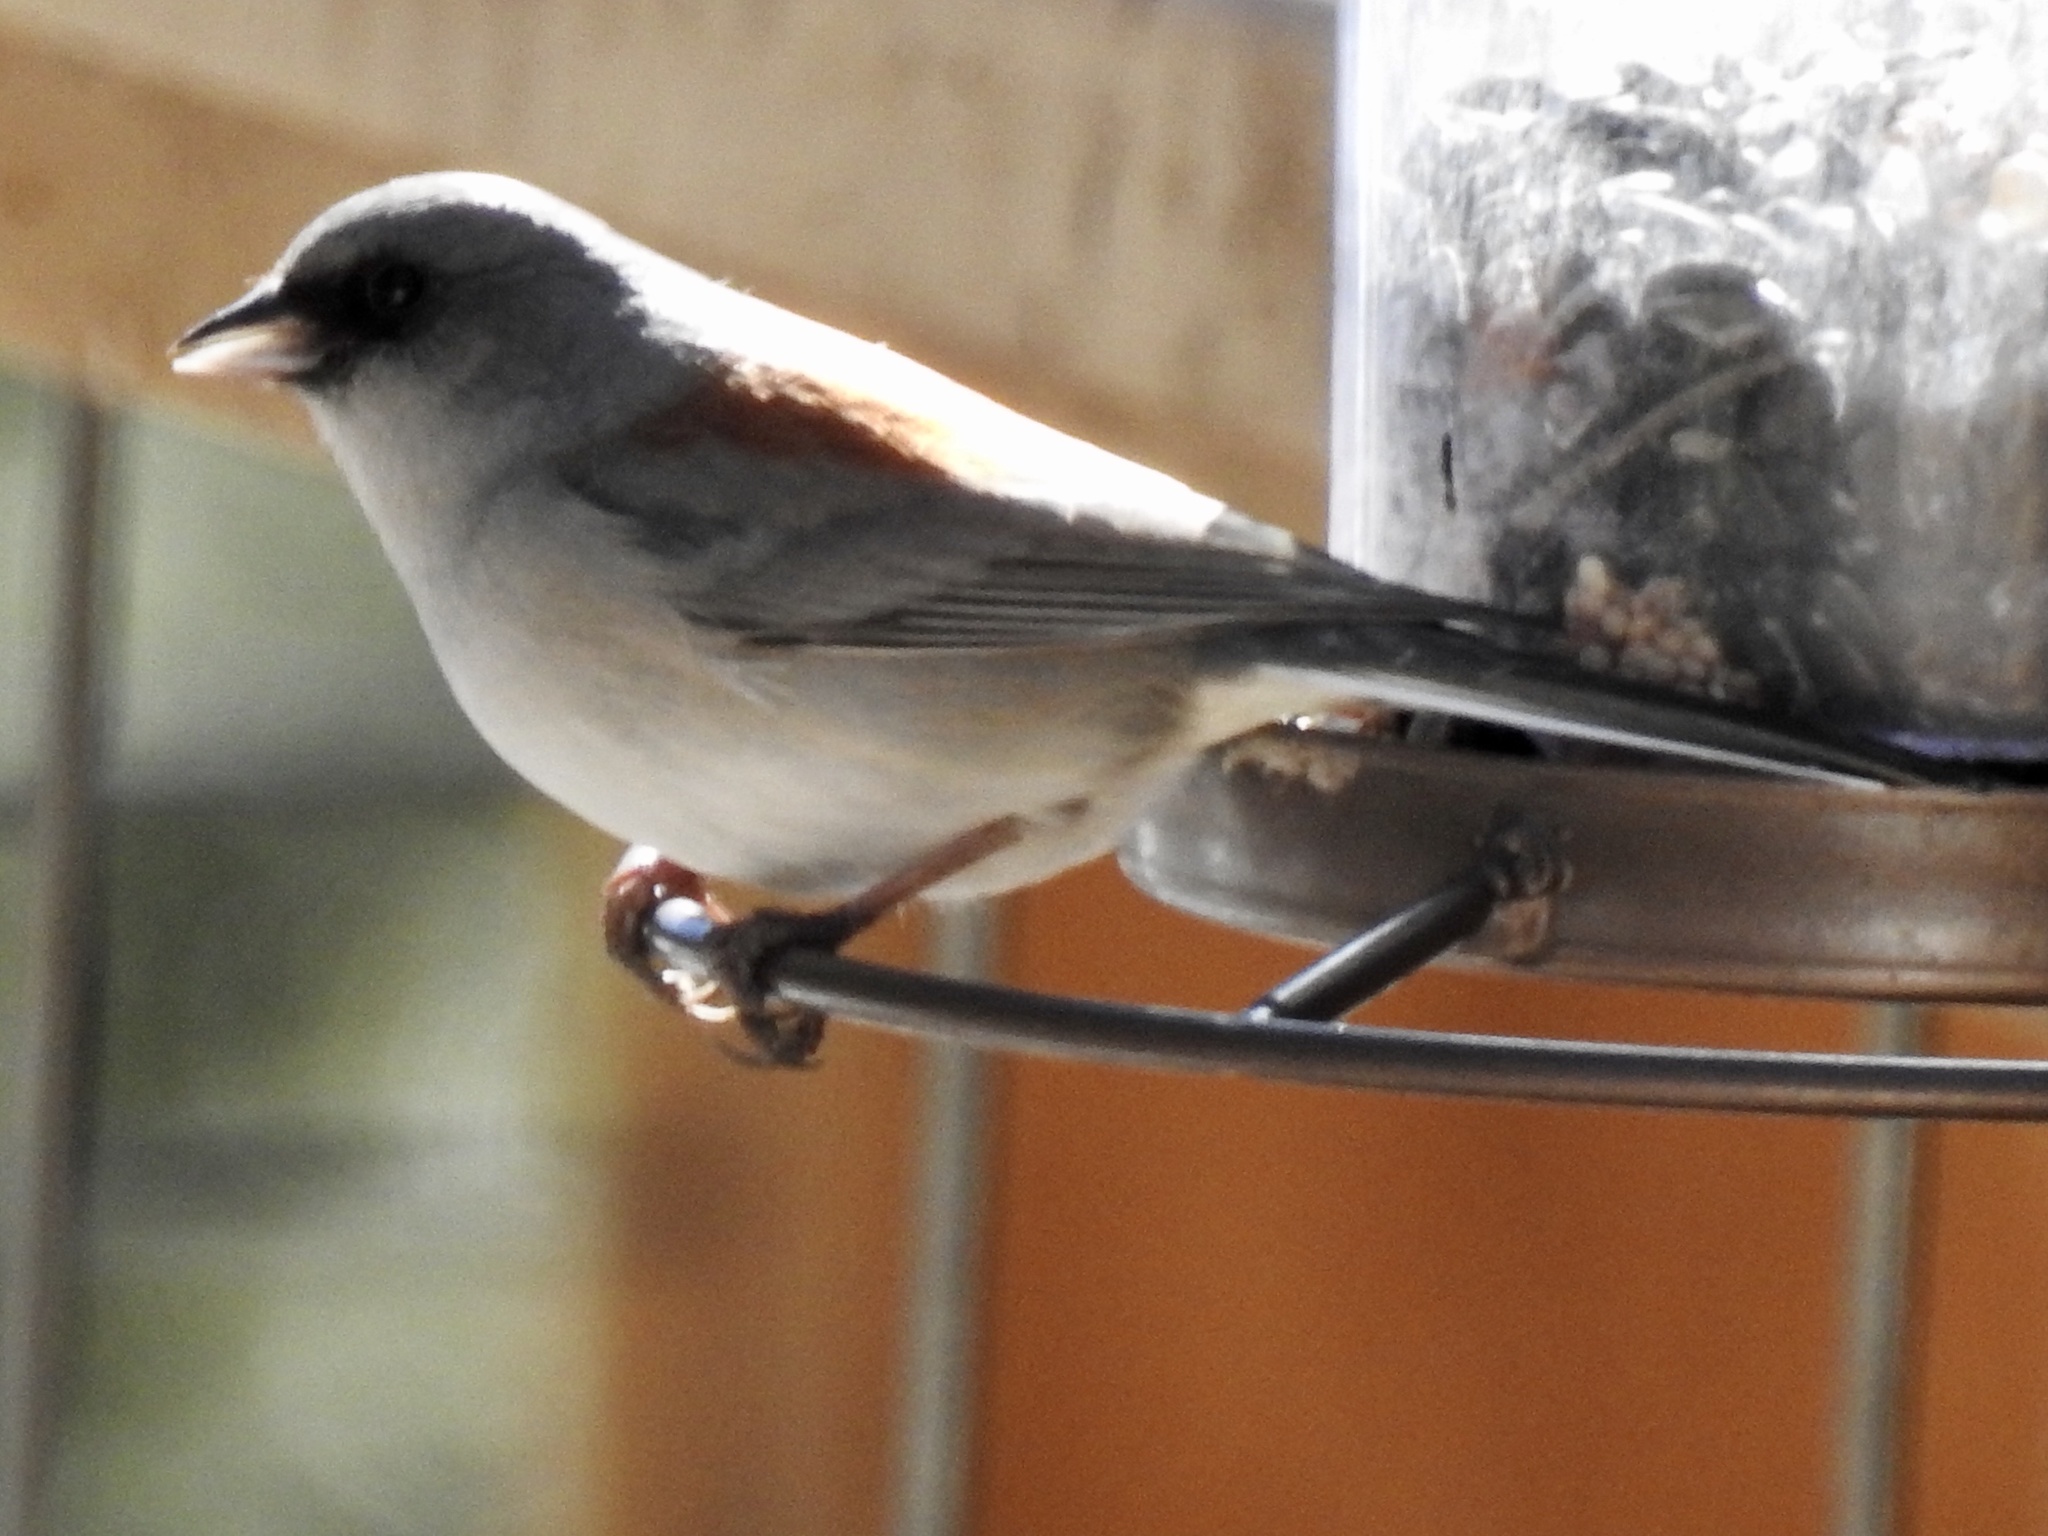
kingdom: Animalia
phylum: Chordata
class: Aves
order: Passeriformes
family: Passerellidae
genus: Junco
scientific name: Junco hyemalis
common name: Dark-eyed junco
